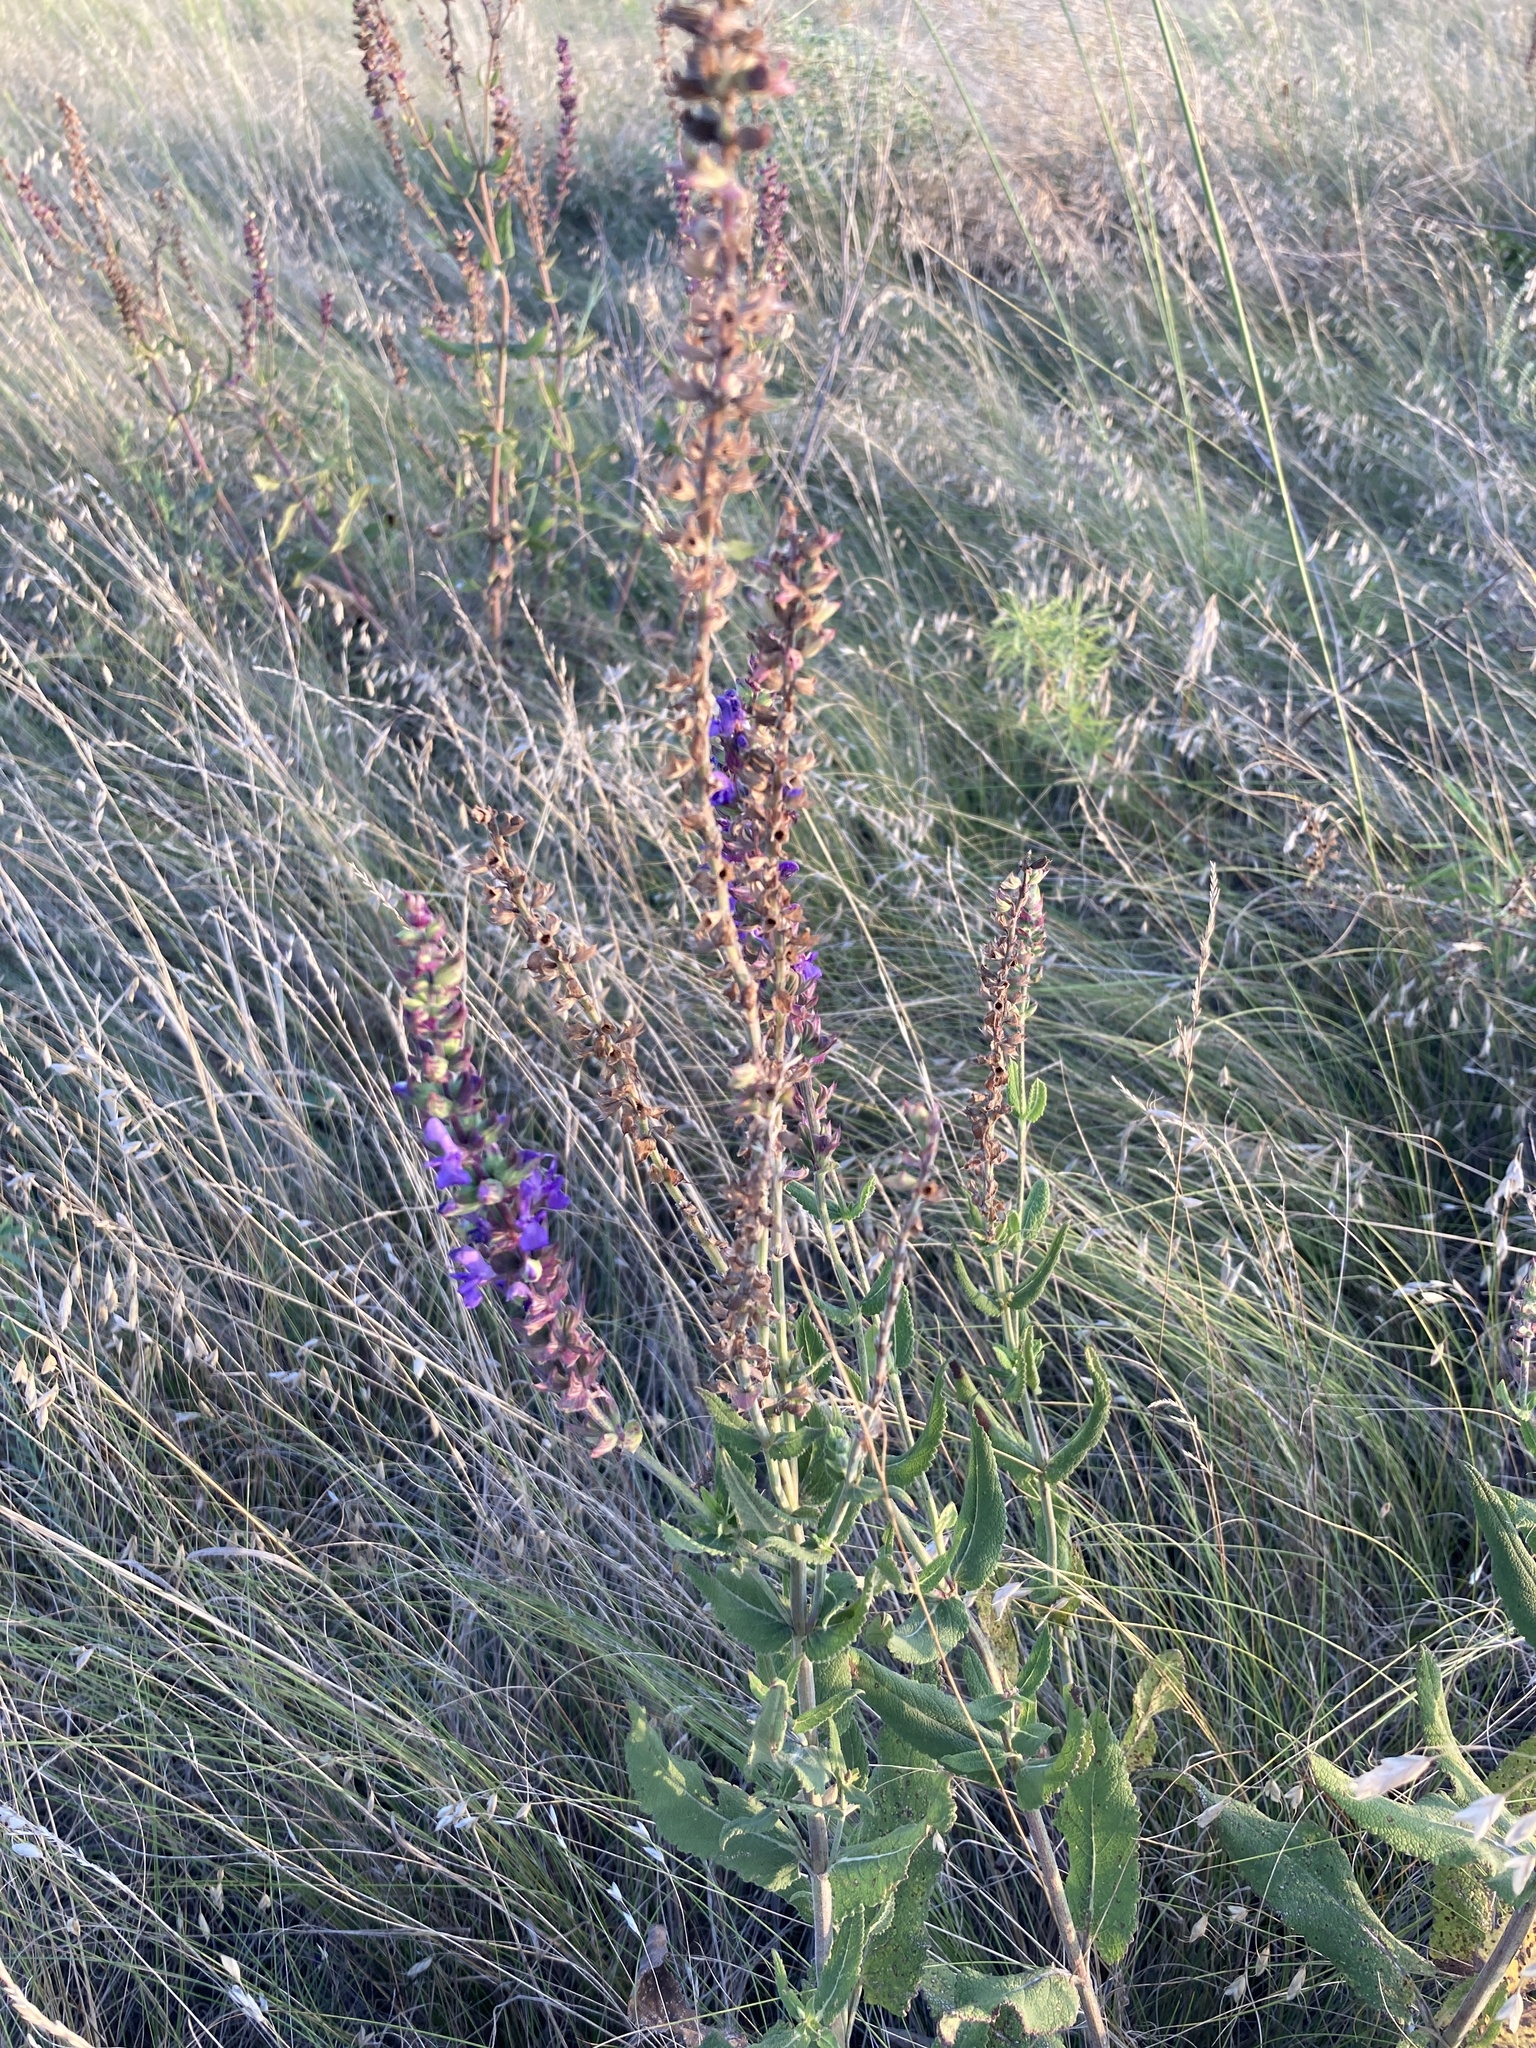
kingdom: Plantae
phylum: Tracheophyta
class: Magnoliopsida
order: Lamiales
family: Lamiaceae
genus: Salvia
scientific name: Salvia nemorosa
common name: Balkan clary
